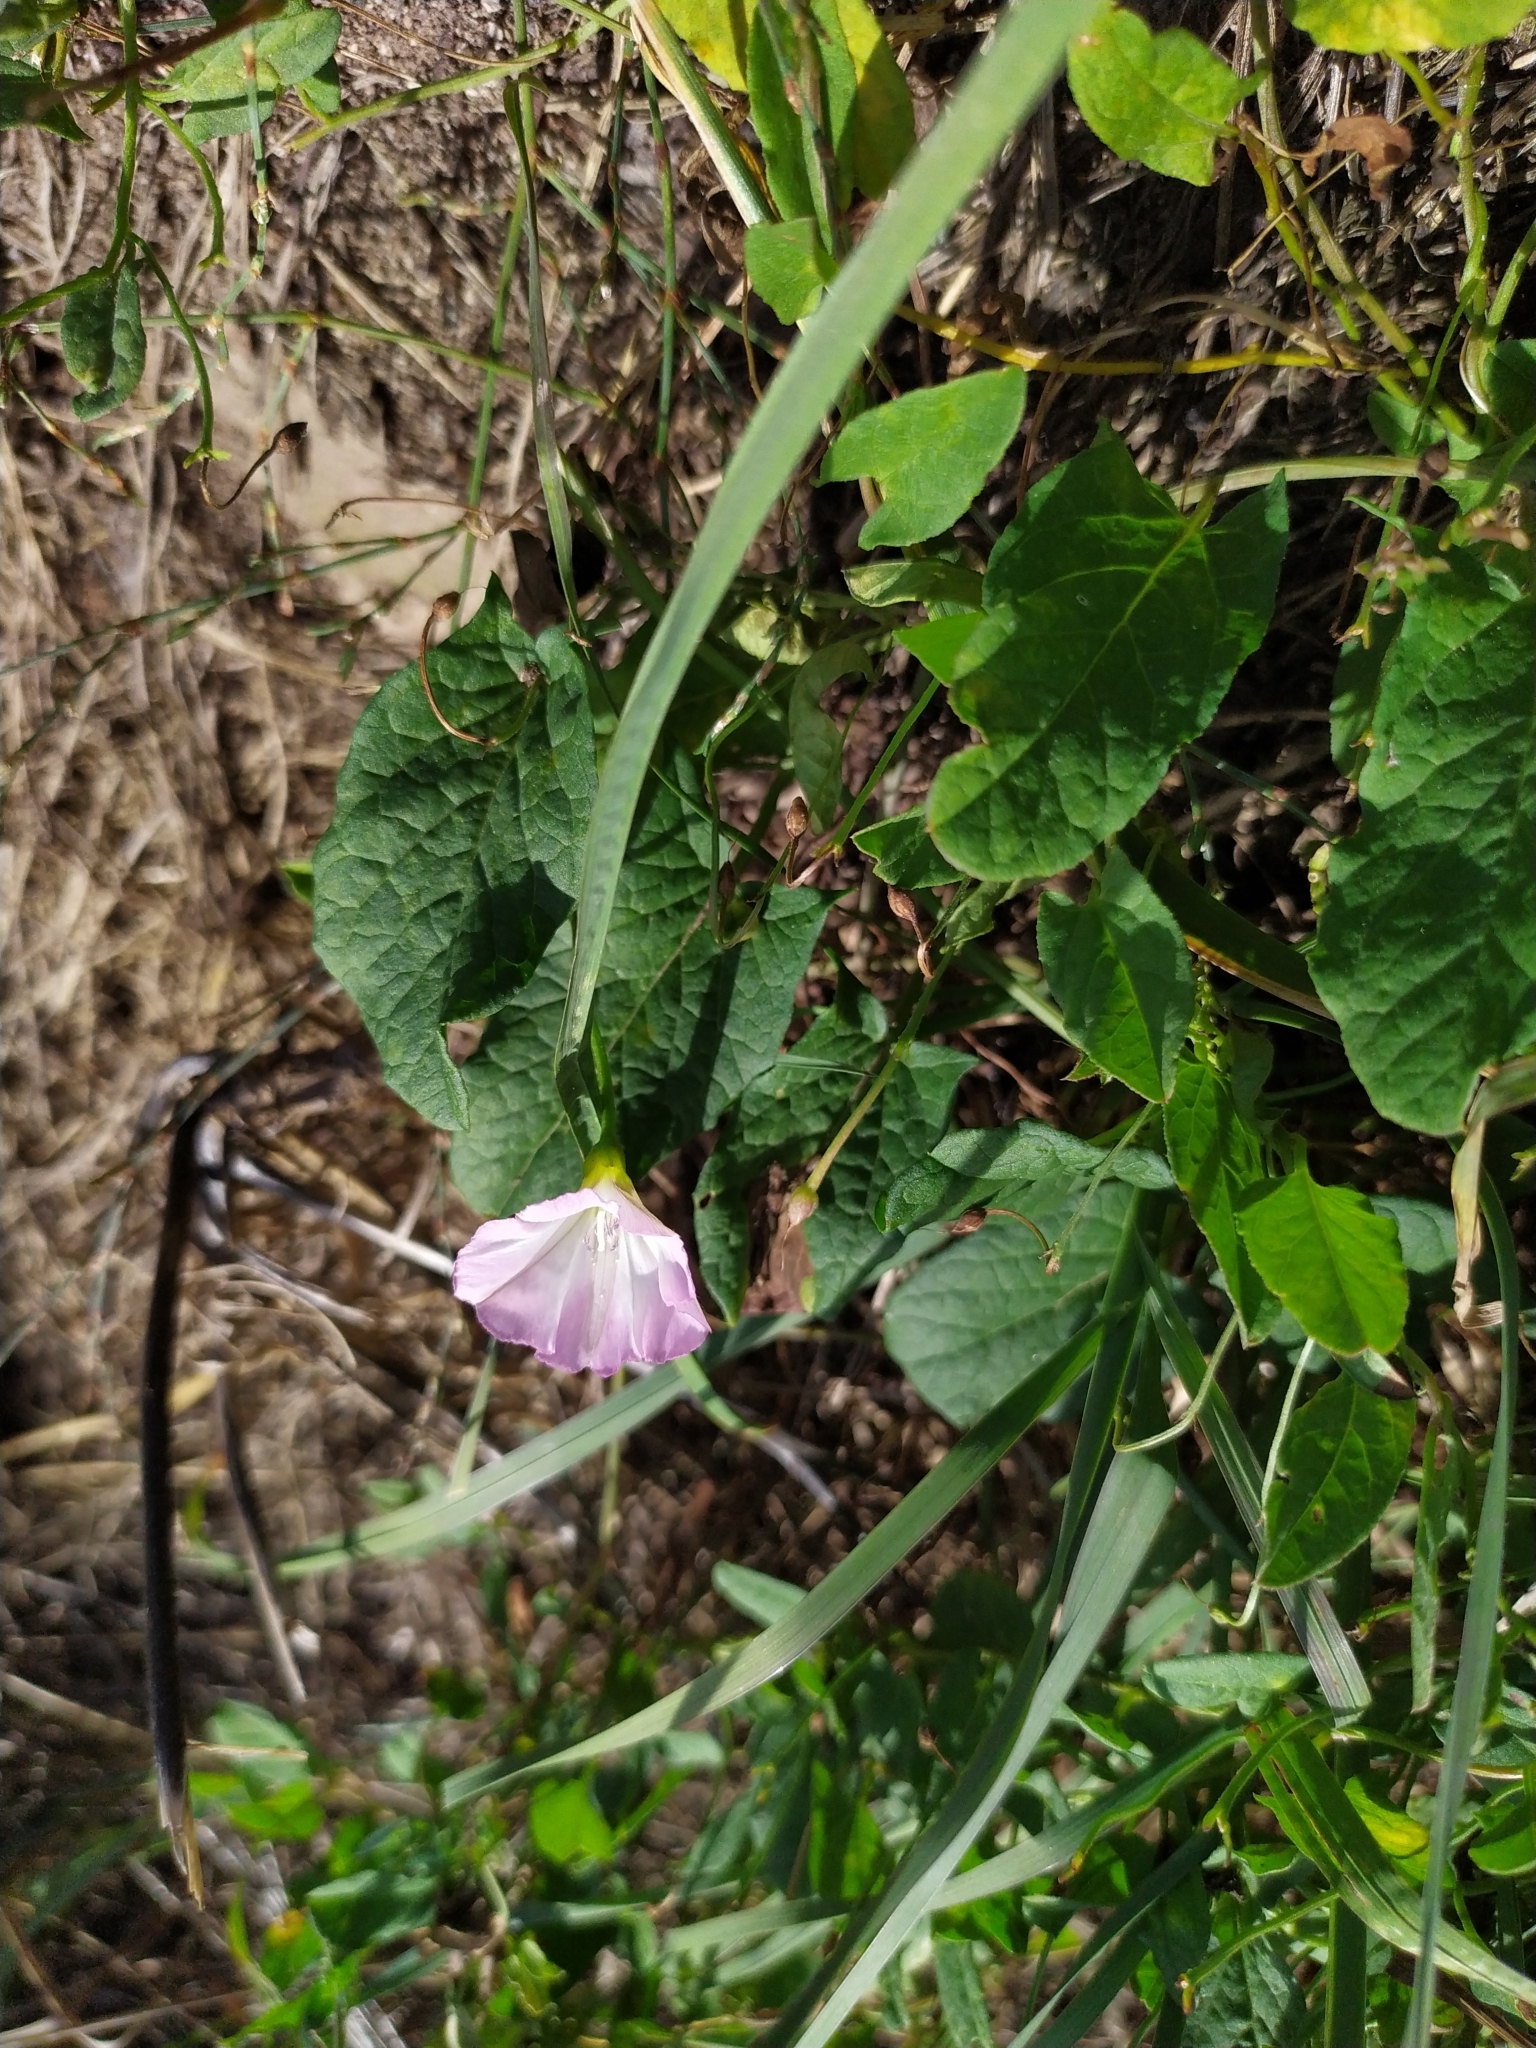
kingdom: Plantae
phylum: Tracheophyta
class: Magnoliopsida
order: Solanales
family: Convolvulaceae
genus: Convolvulus
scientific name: Convolvulus arvensis
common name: Field bindweed
